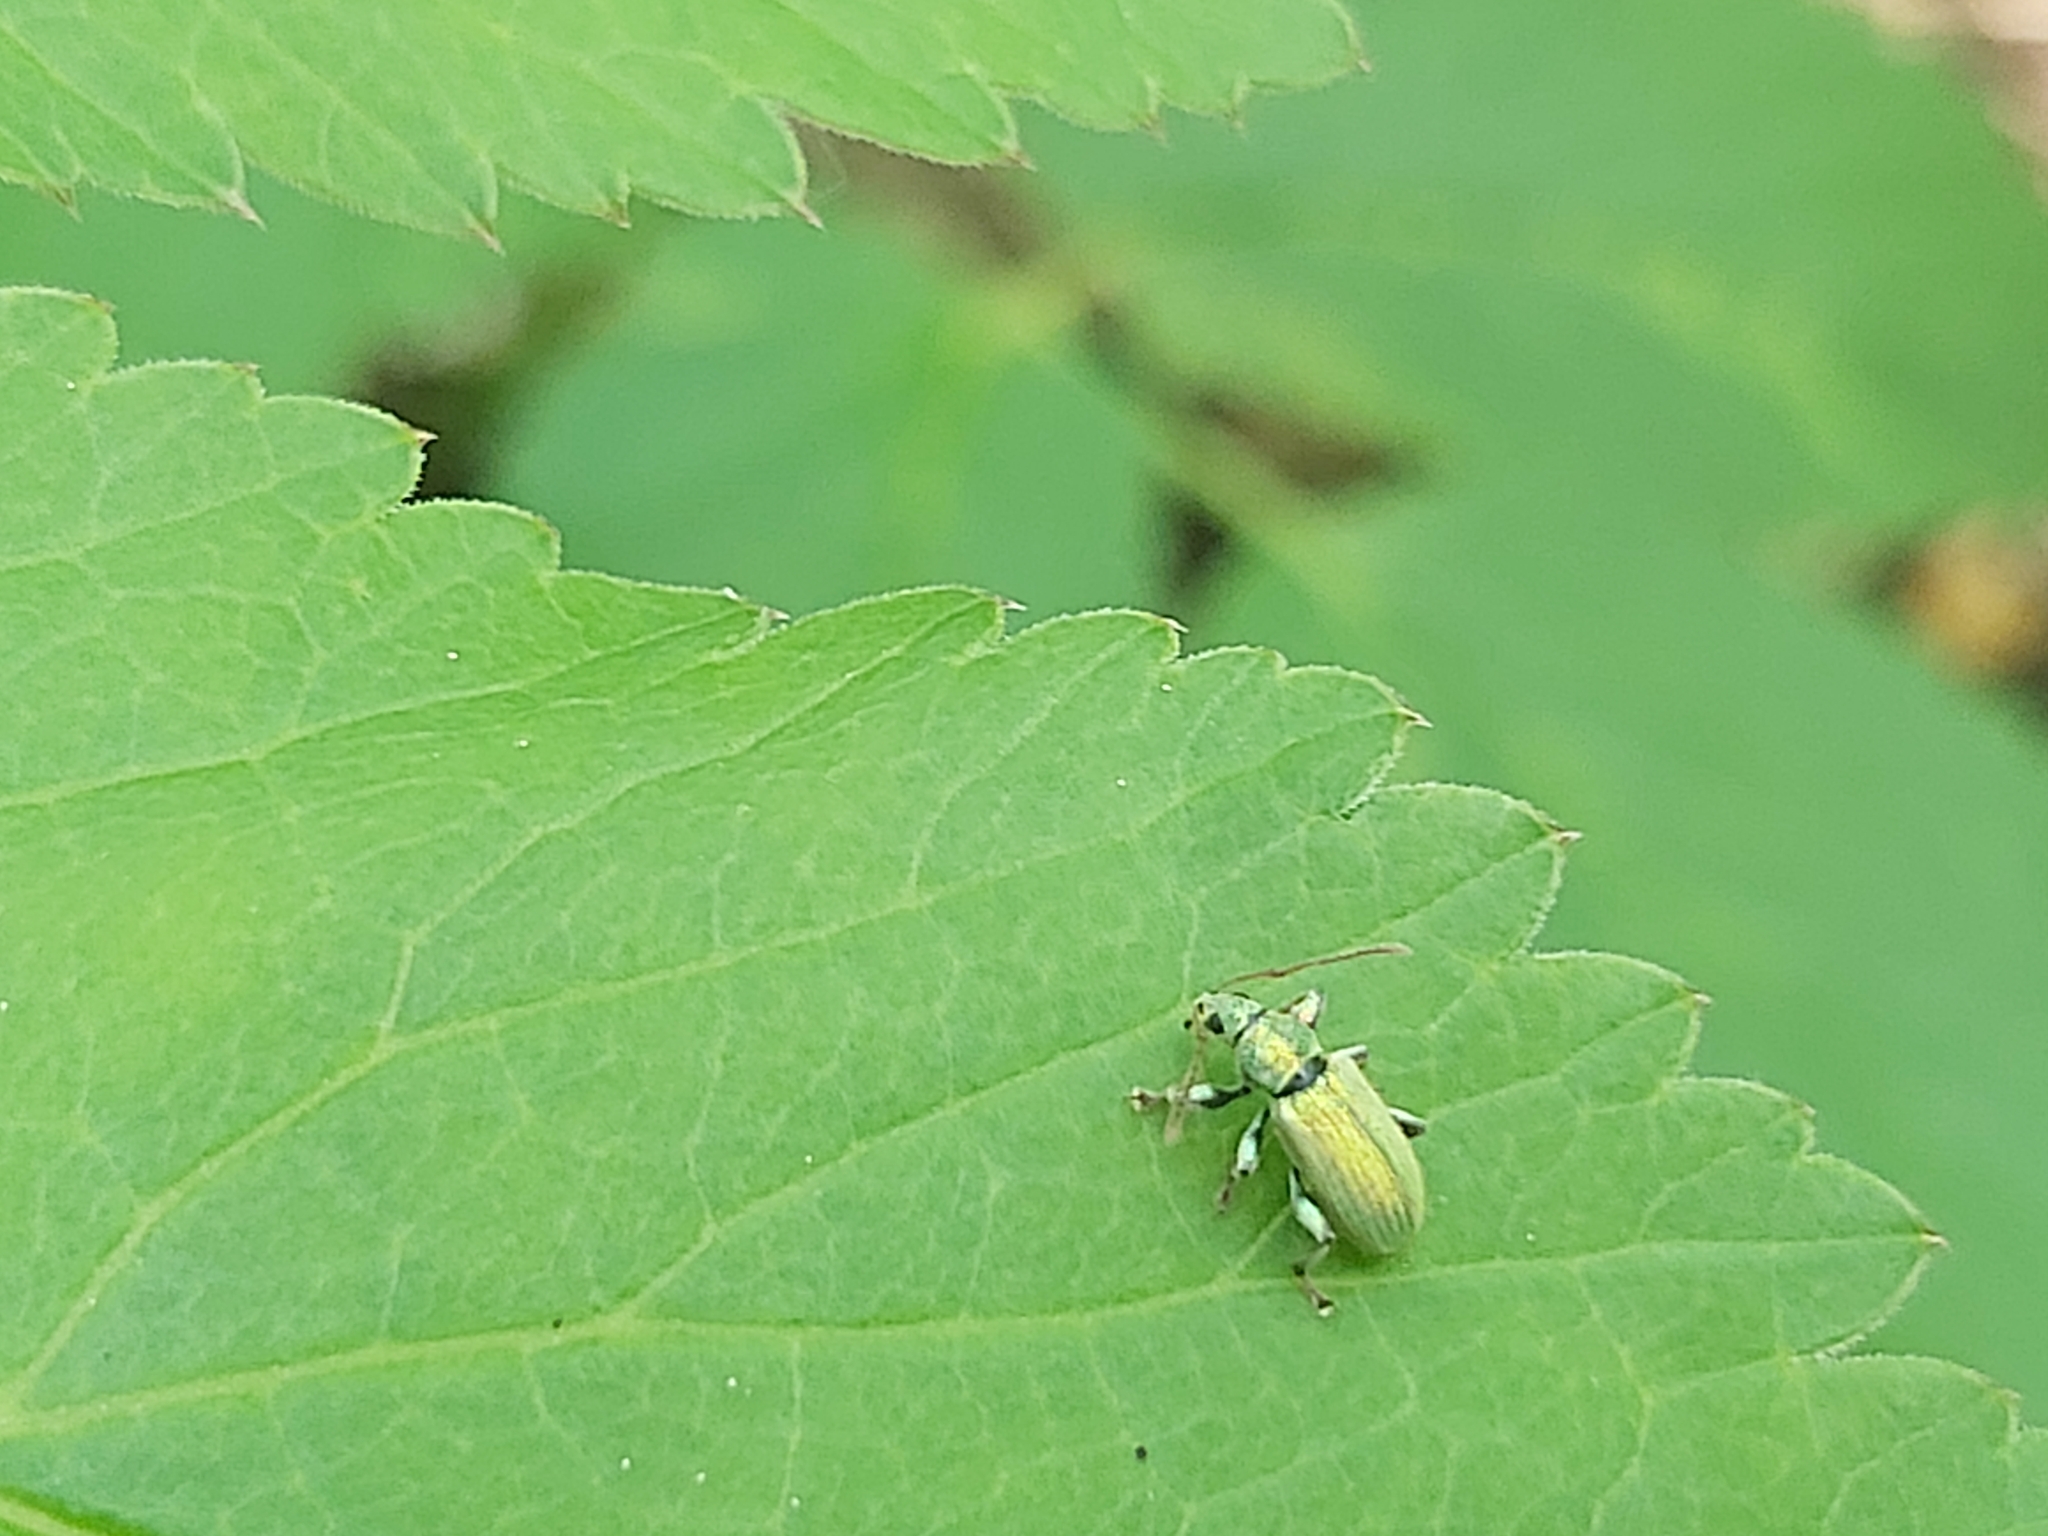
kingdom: Animalia
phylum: Arthropoda
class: Insecta
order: Coleoptera
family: Curculionidae
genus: Phyllobius
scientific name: Phyllobius argentatus
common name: Silver-green leaf weevil
